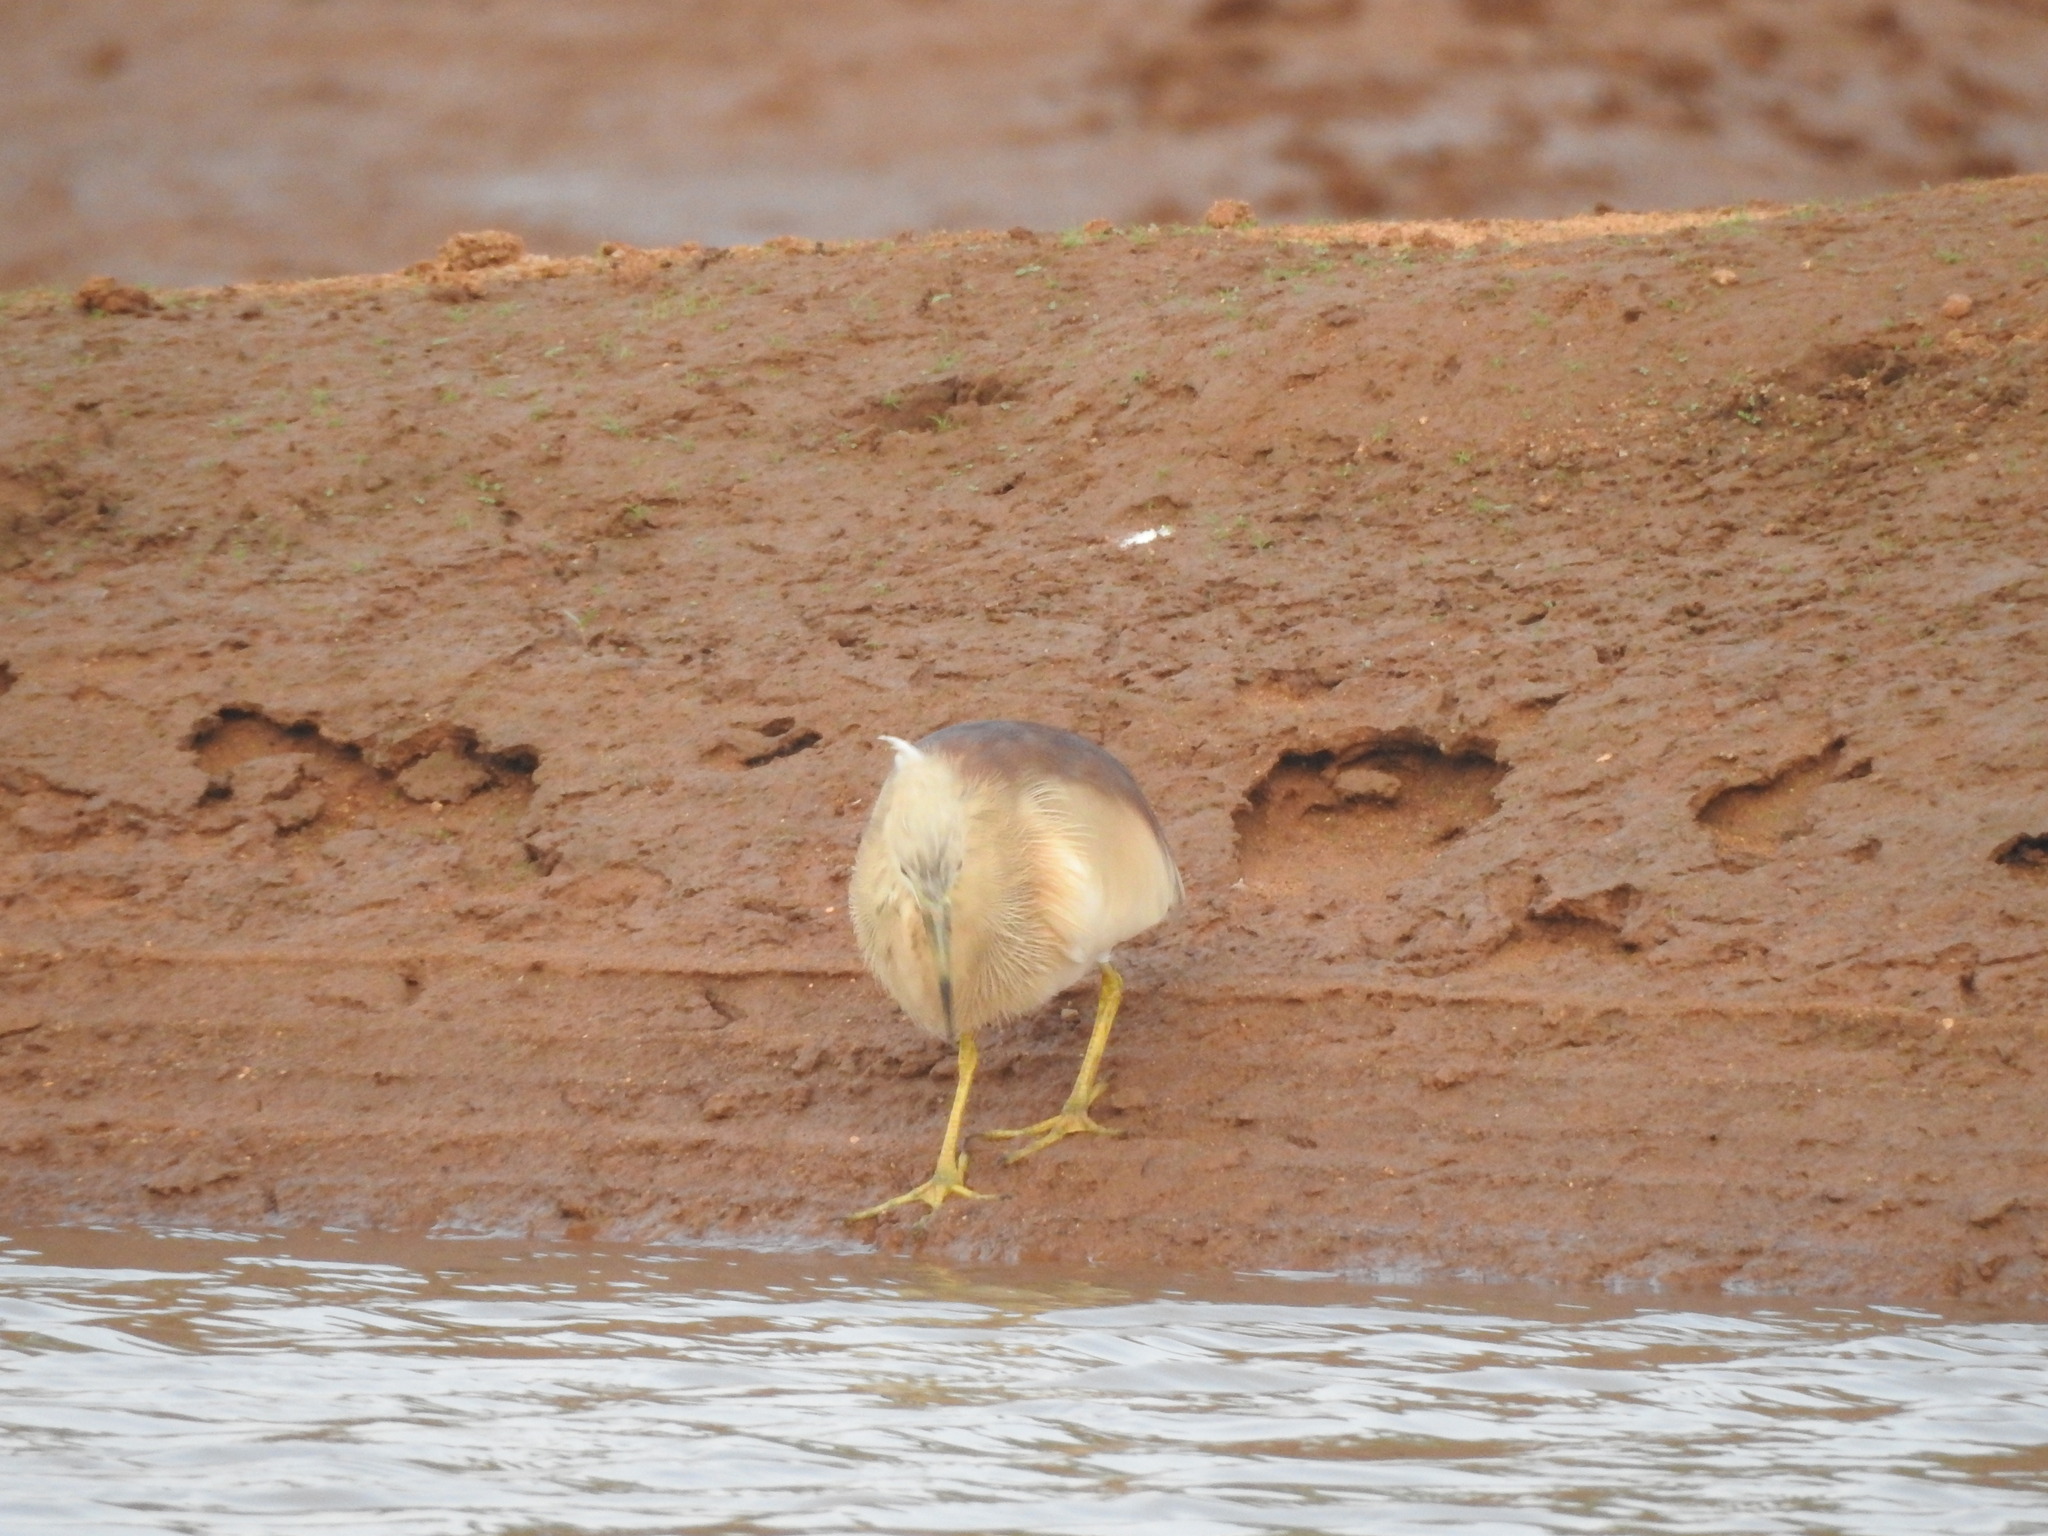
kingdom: Animalia
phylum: Chordata
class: Aves
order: Pelecaniformes
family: Ardeidae
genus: Ardeola
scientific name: Ardeola grayii
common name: Indian pond heron
